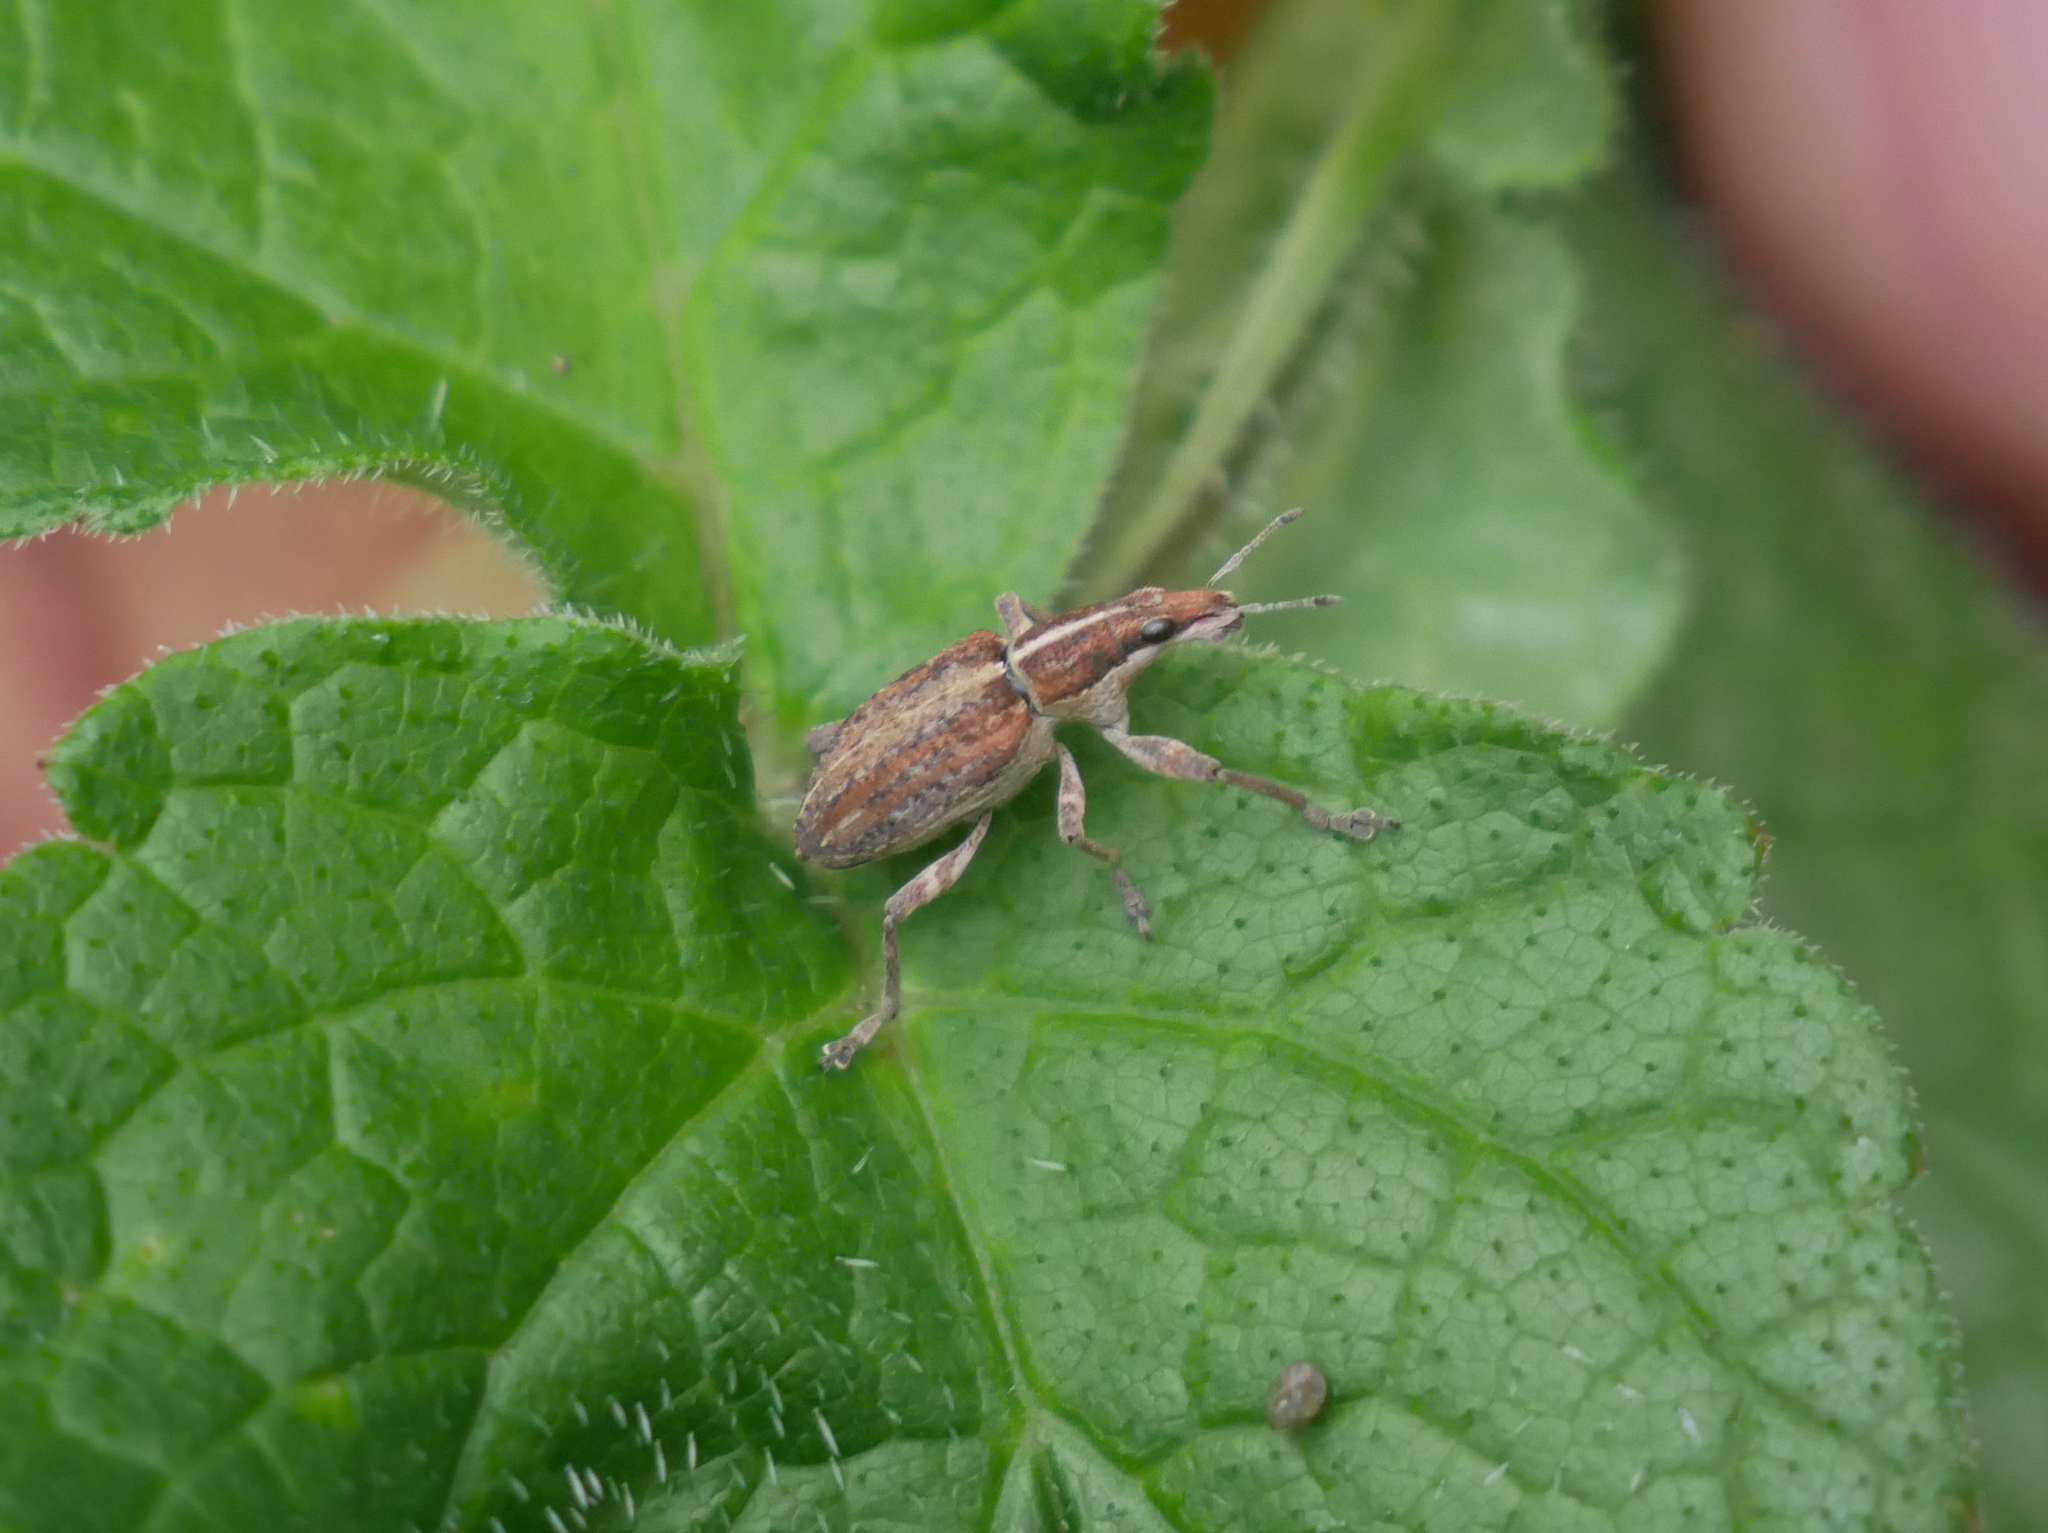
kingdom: Animalia
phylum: Arthropoda
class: Insecta
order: Coleoptera
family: Curculionidae
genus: Charagmus
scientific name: Charagmus gressorius
